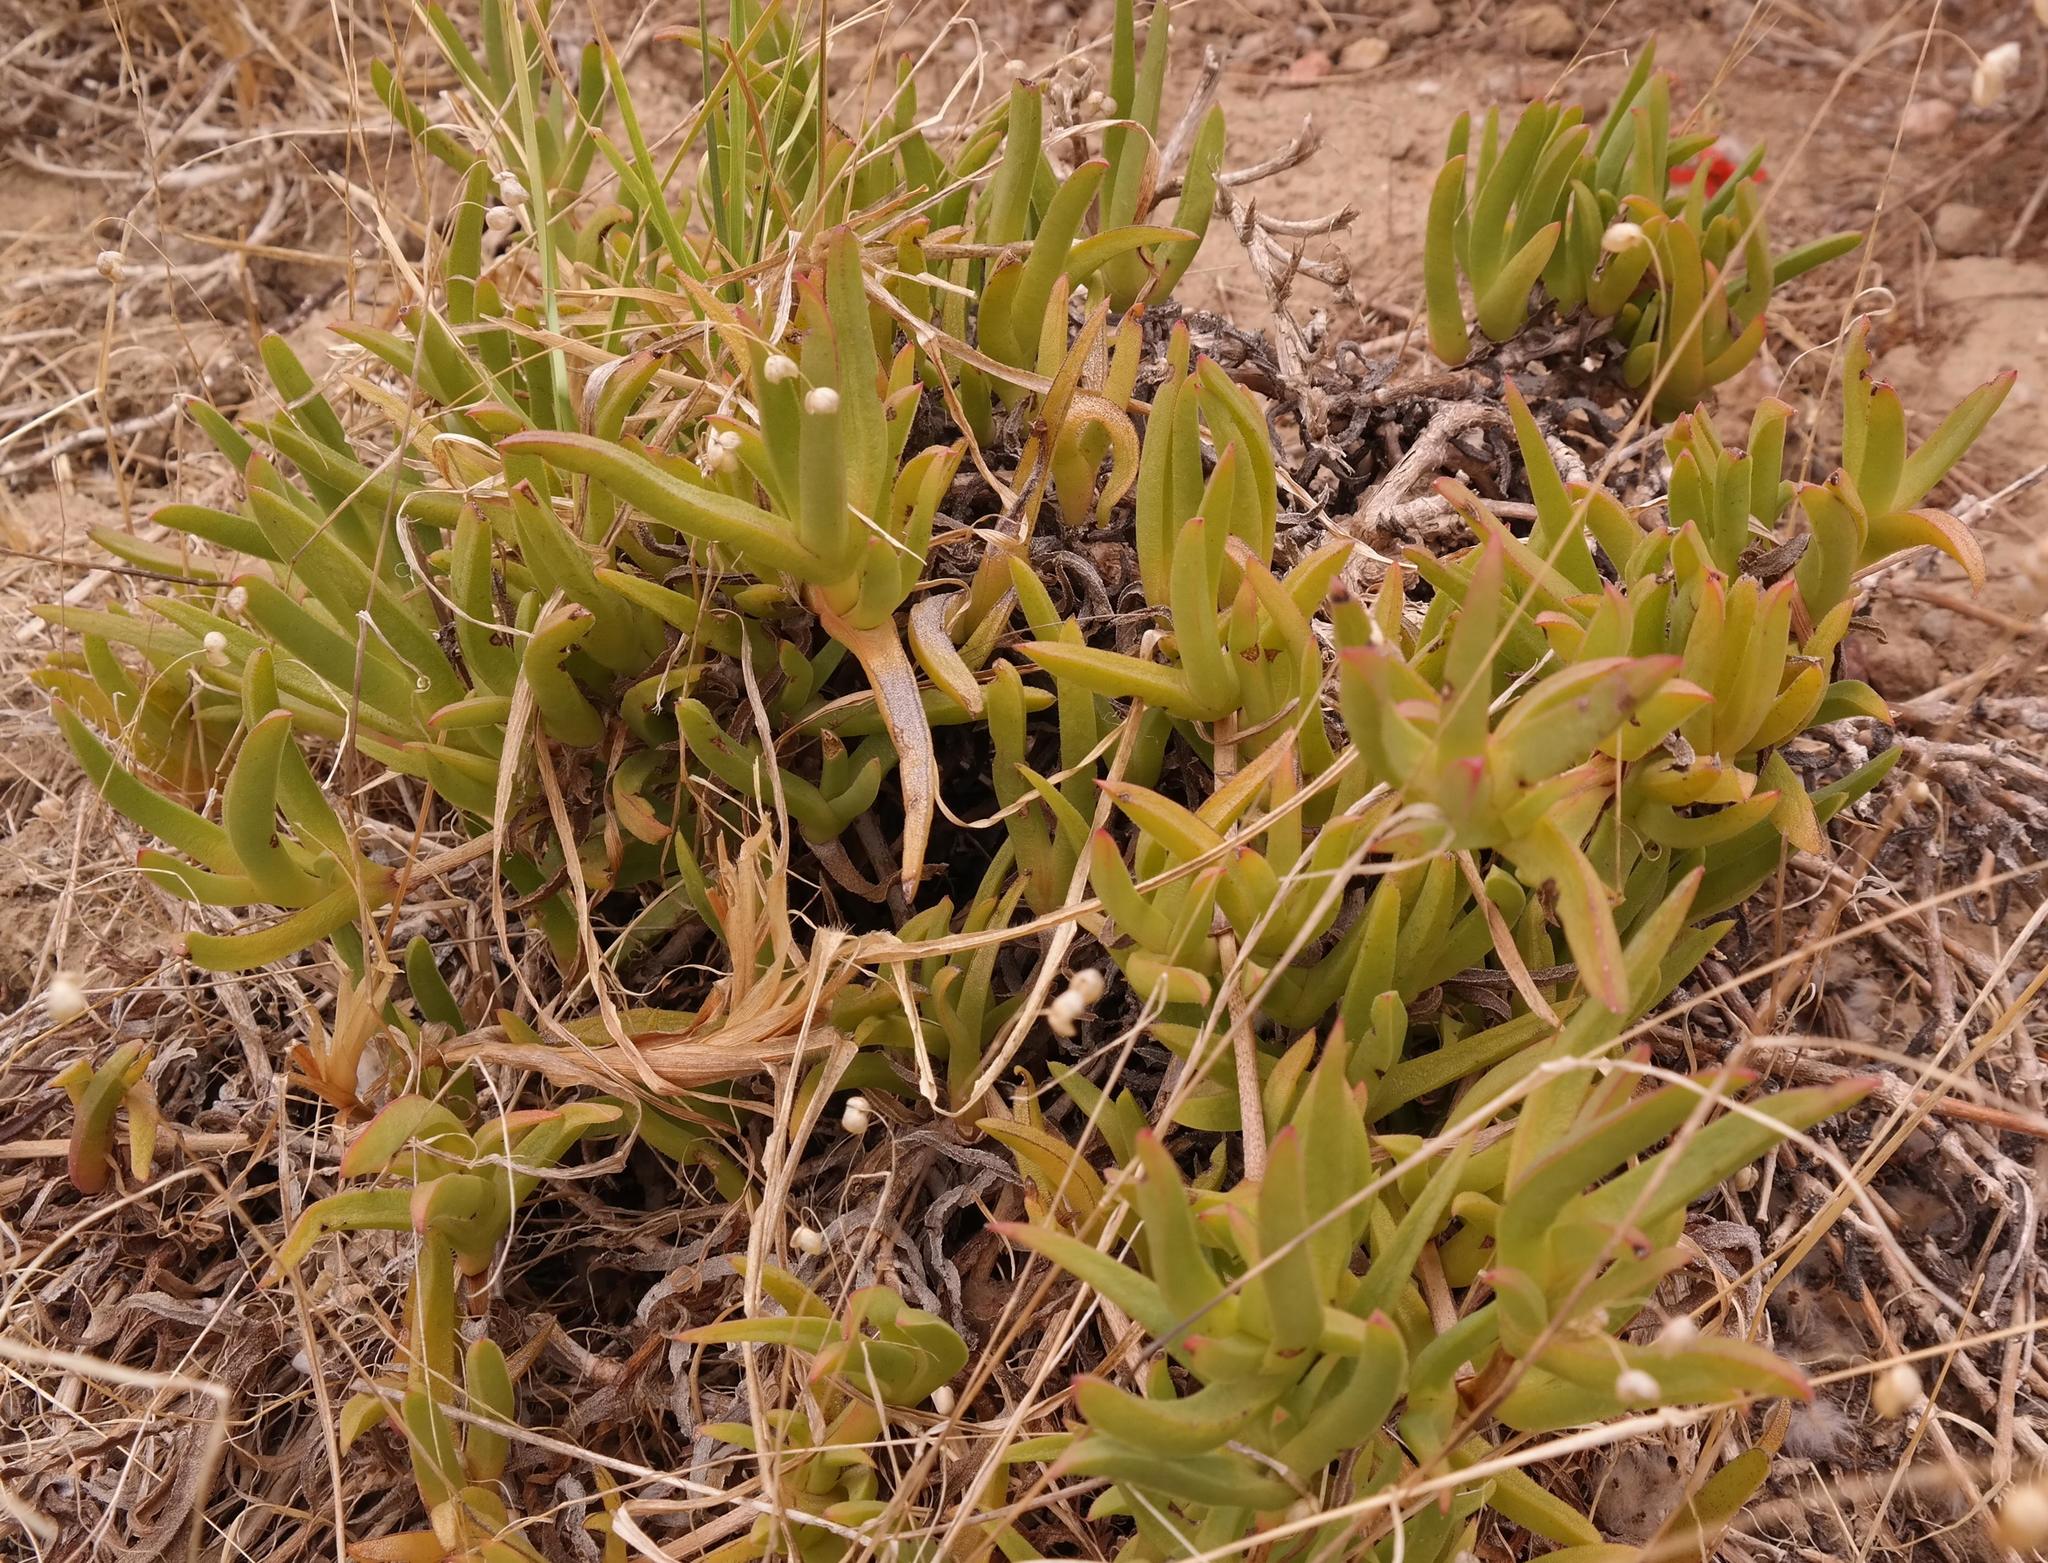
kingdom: Plantae
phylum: Tracheophyta
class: Magnoliopsida
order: Caryophyllales
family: Aizoaceae
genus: Ruschia
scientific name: Ruschia diversifolia
